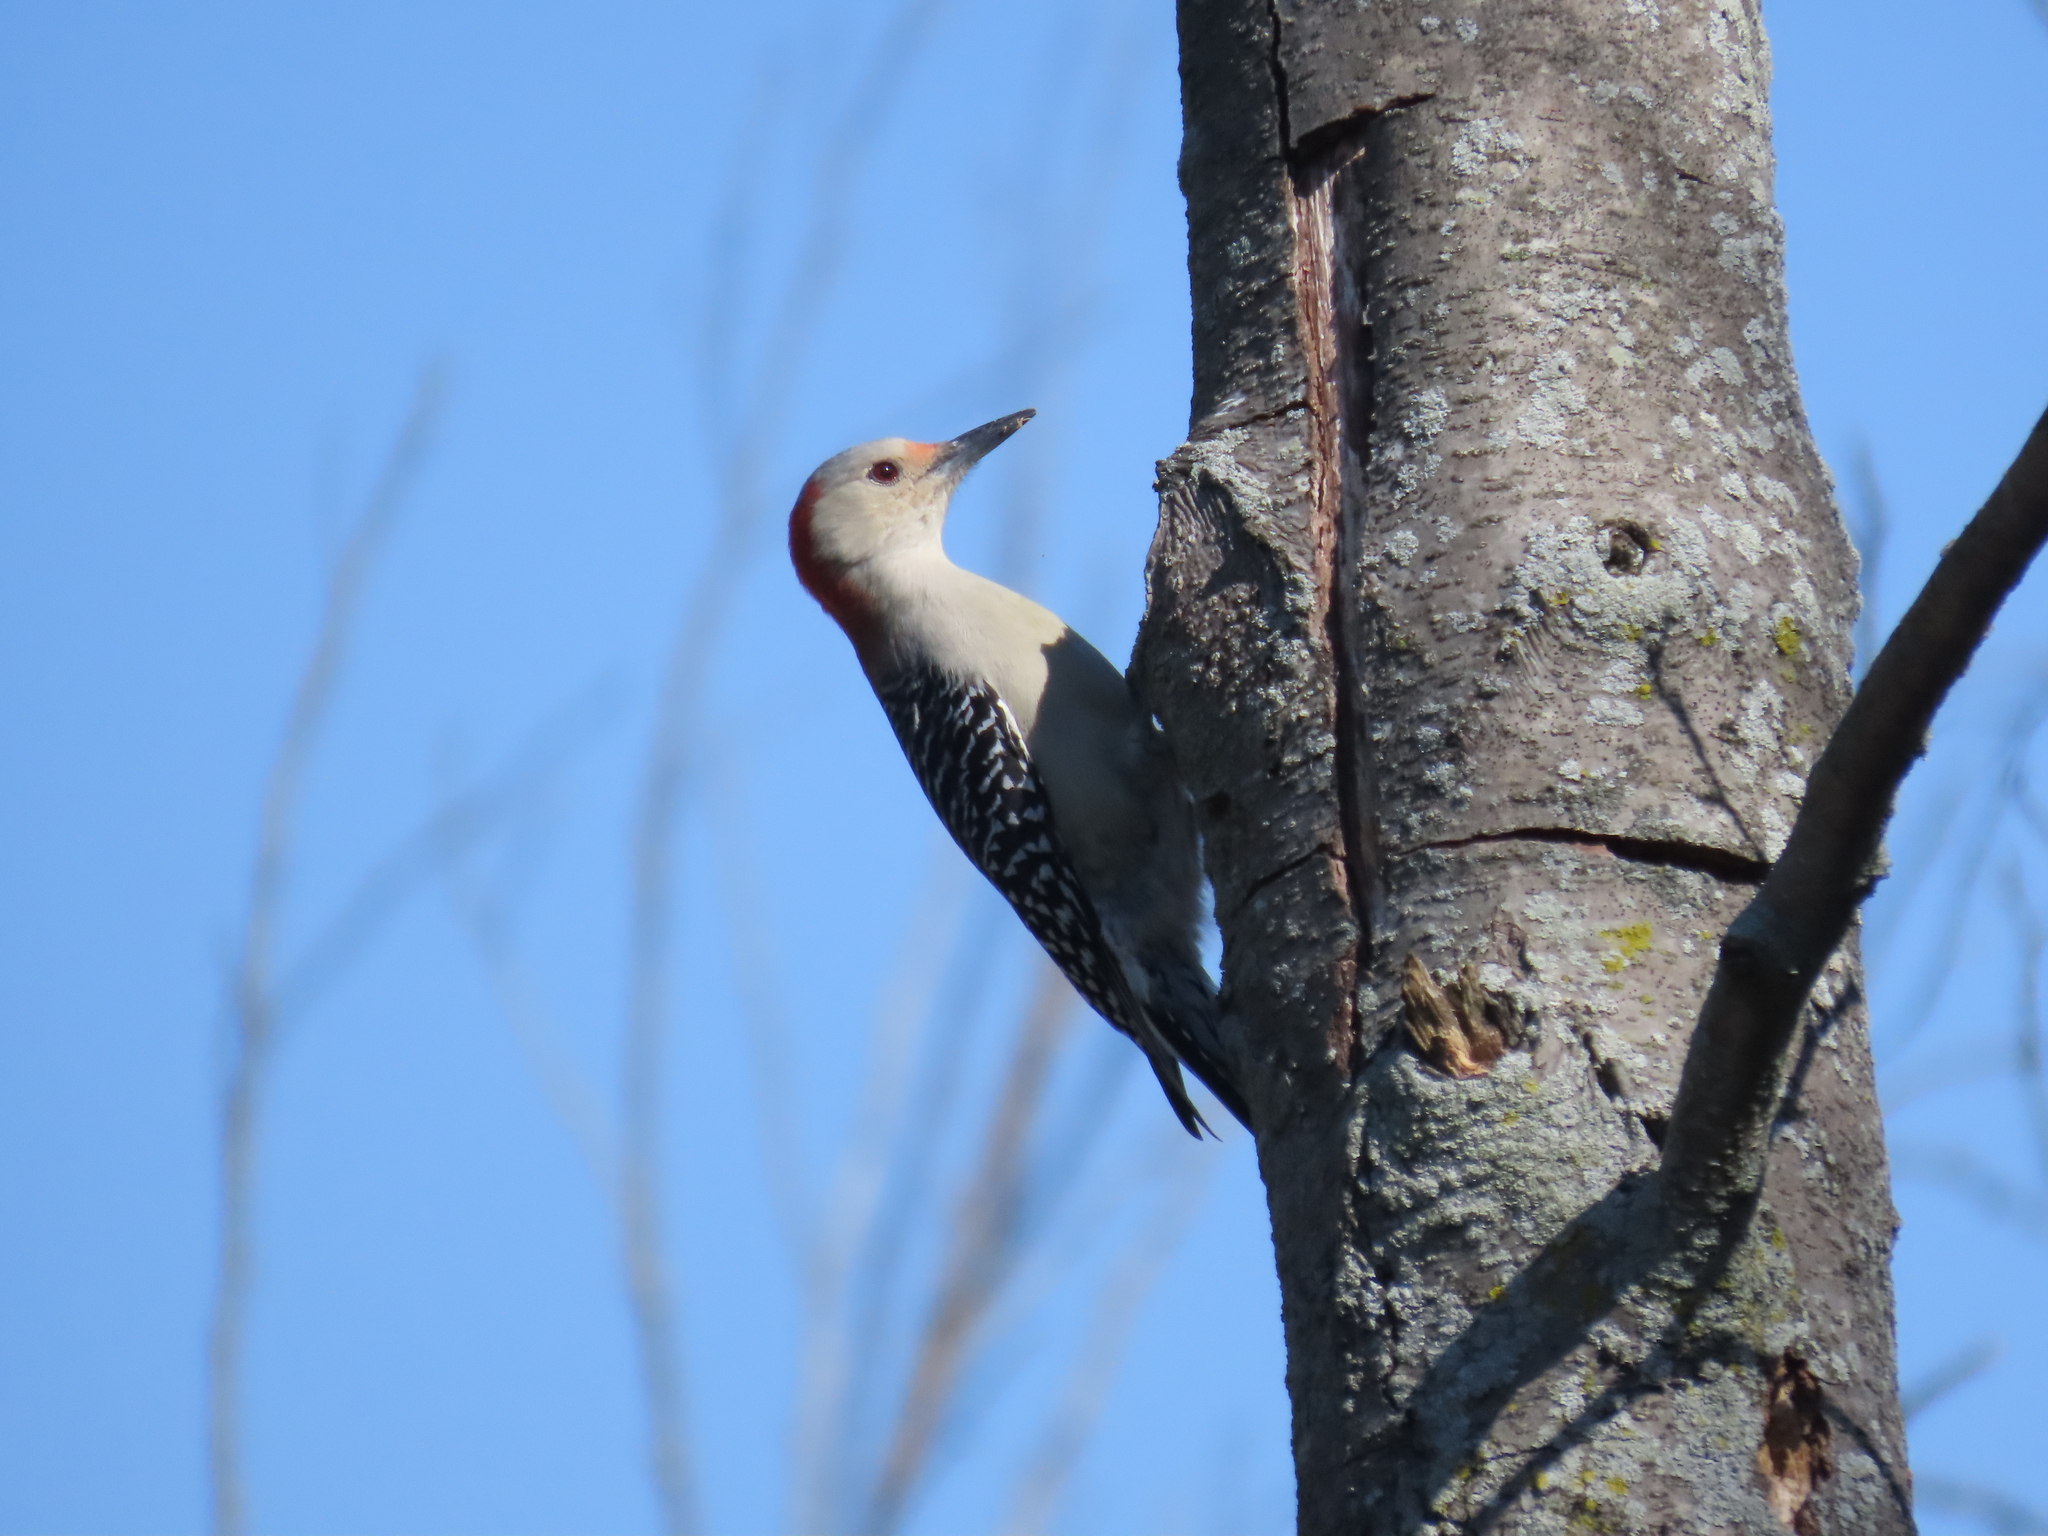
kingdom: Animalia
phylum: Chordata
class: Aves
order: Piciformes
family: Picidae
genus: Melanerpes
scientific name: Melanerpes carolinus
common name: Red-bellied woodpecker
